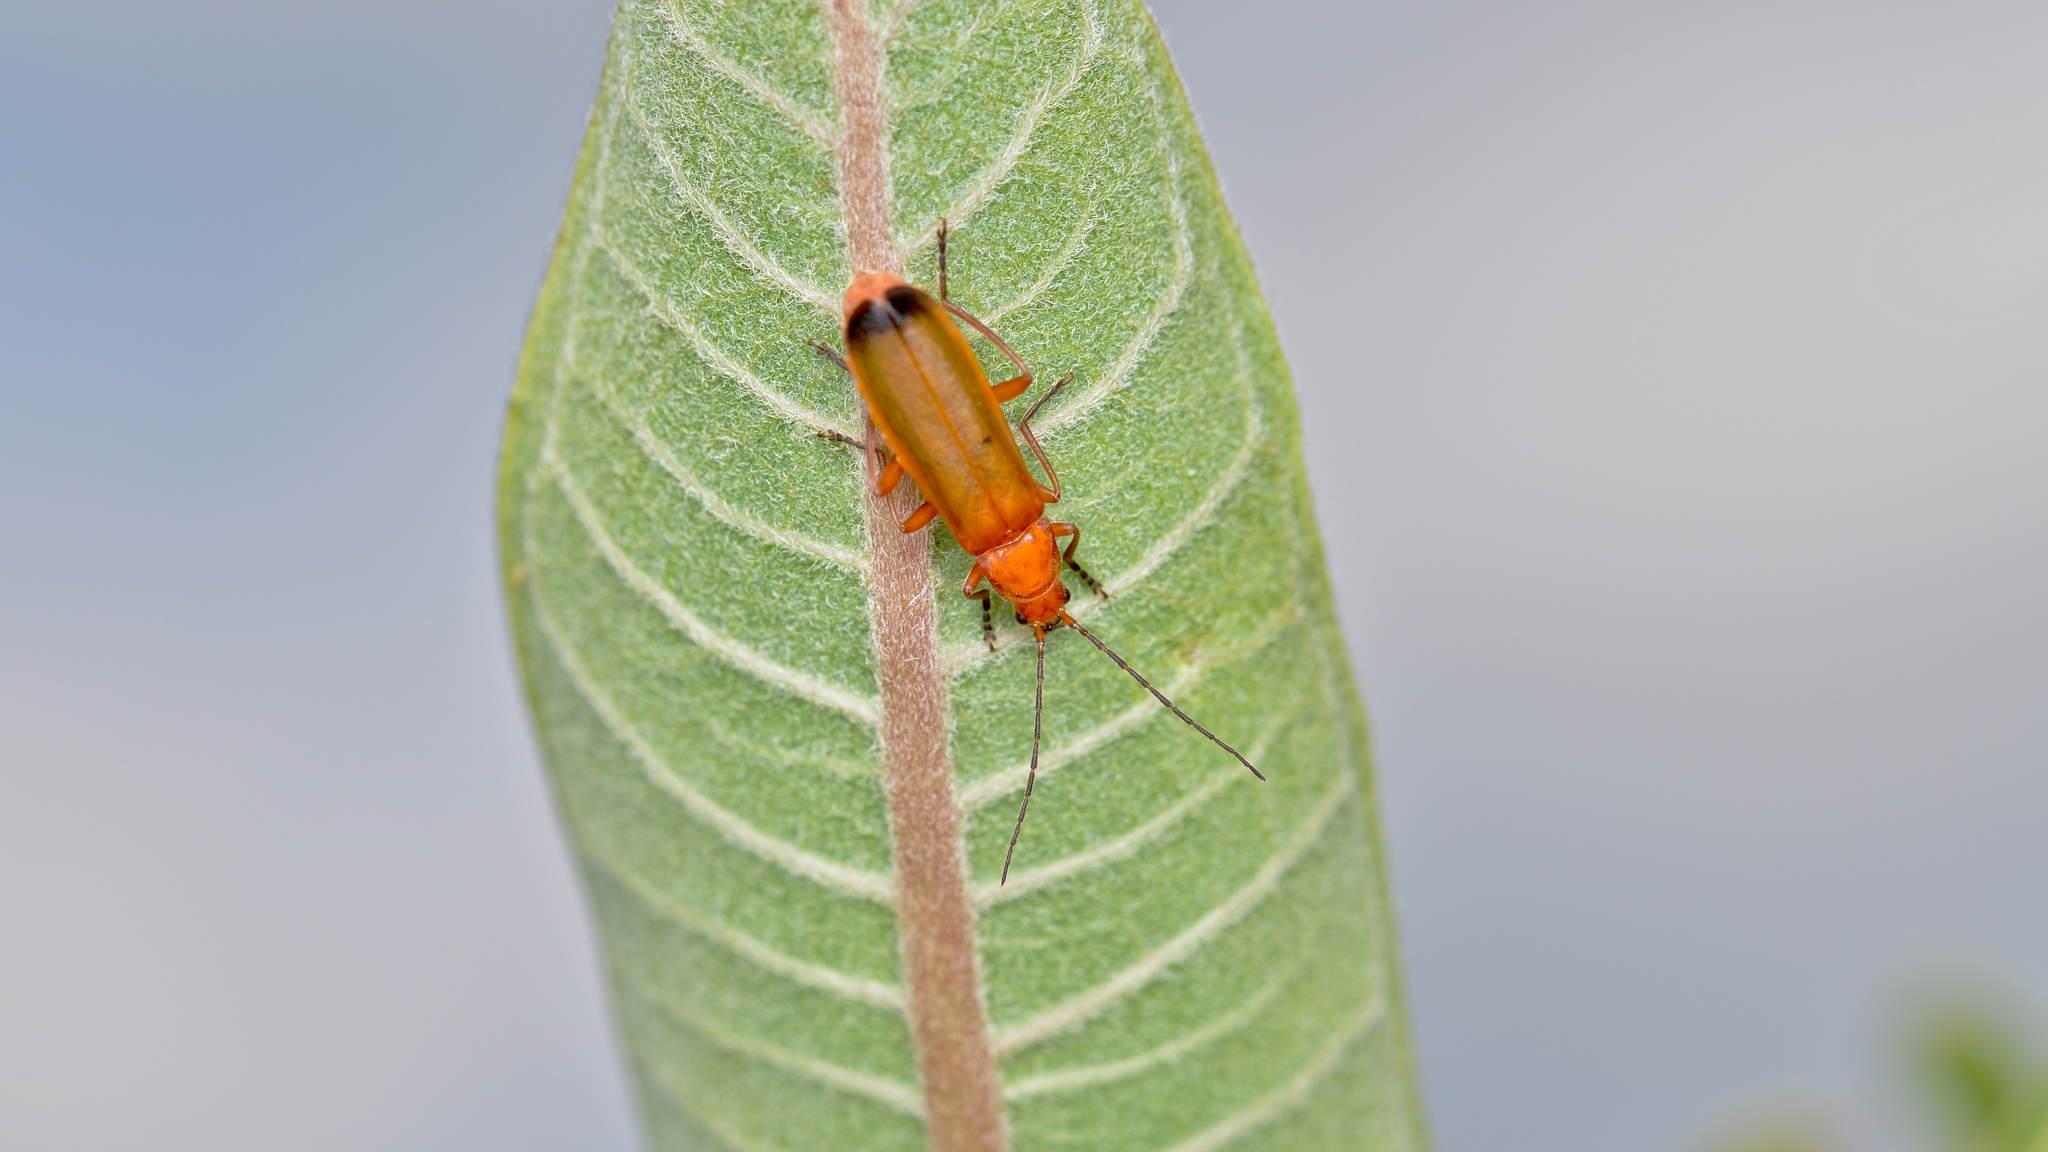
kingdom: Animalia
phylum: Arthropoda
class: Insecta
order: Coleoptera
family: Cantharidae
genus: Rhagonycha
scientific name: Rhagonycha fulva
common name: Common red soldier beetle
